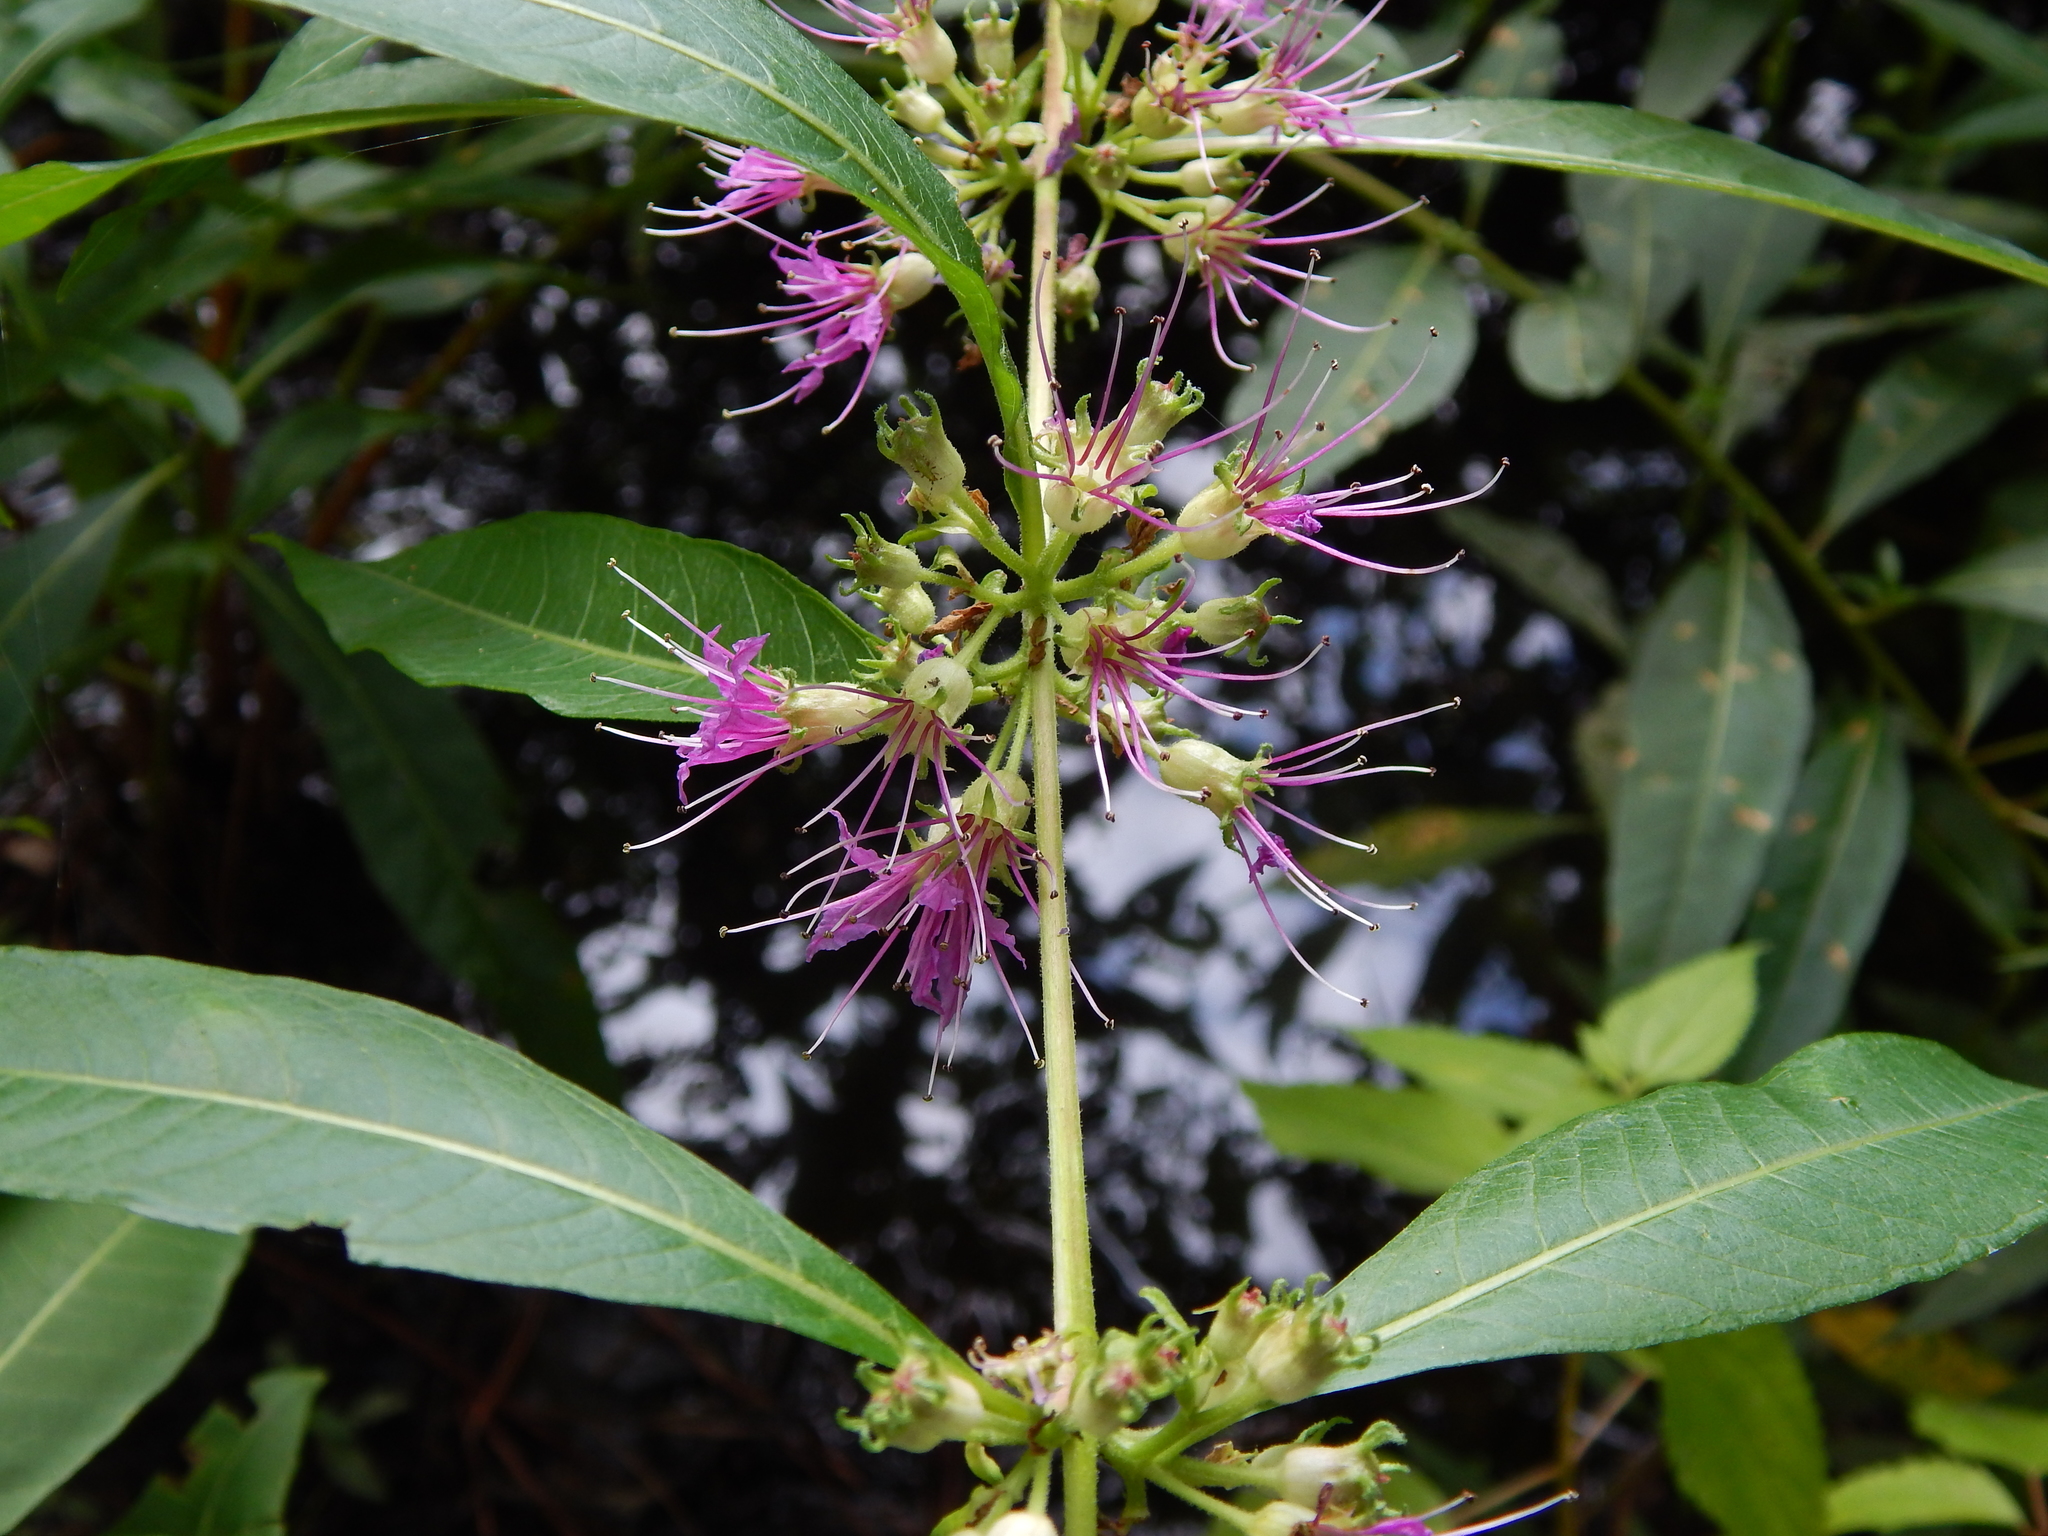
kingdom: Plantae
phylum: Tracheophyta
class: Magnoliopsida
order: Myrtales
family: Lythraceae
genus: Decodon
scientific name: Decodon verticillatus
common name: Hairy swamp loosestrife
